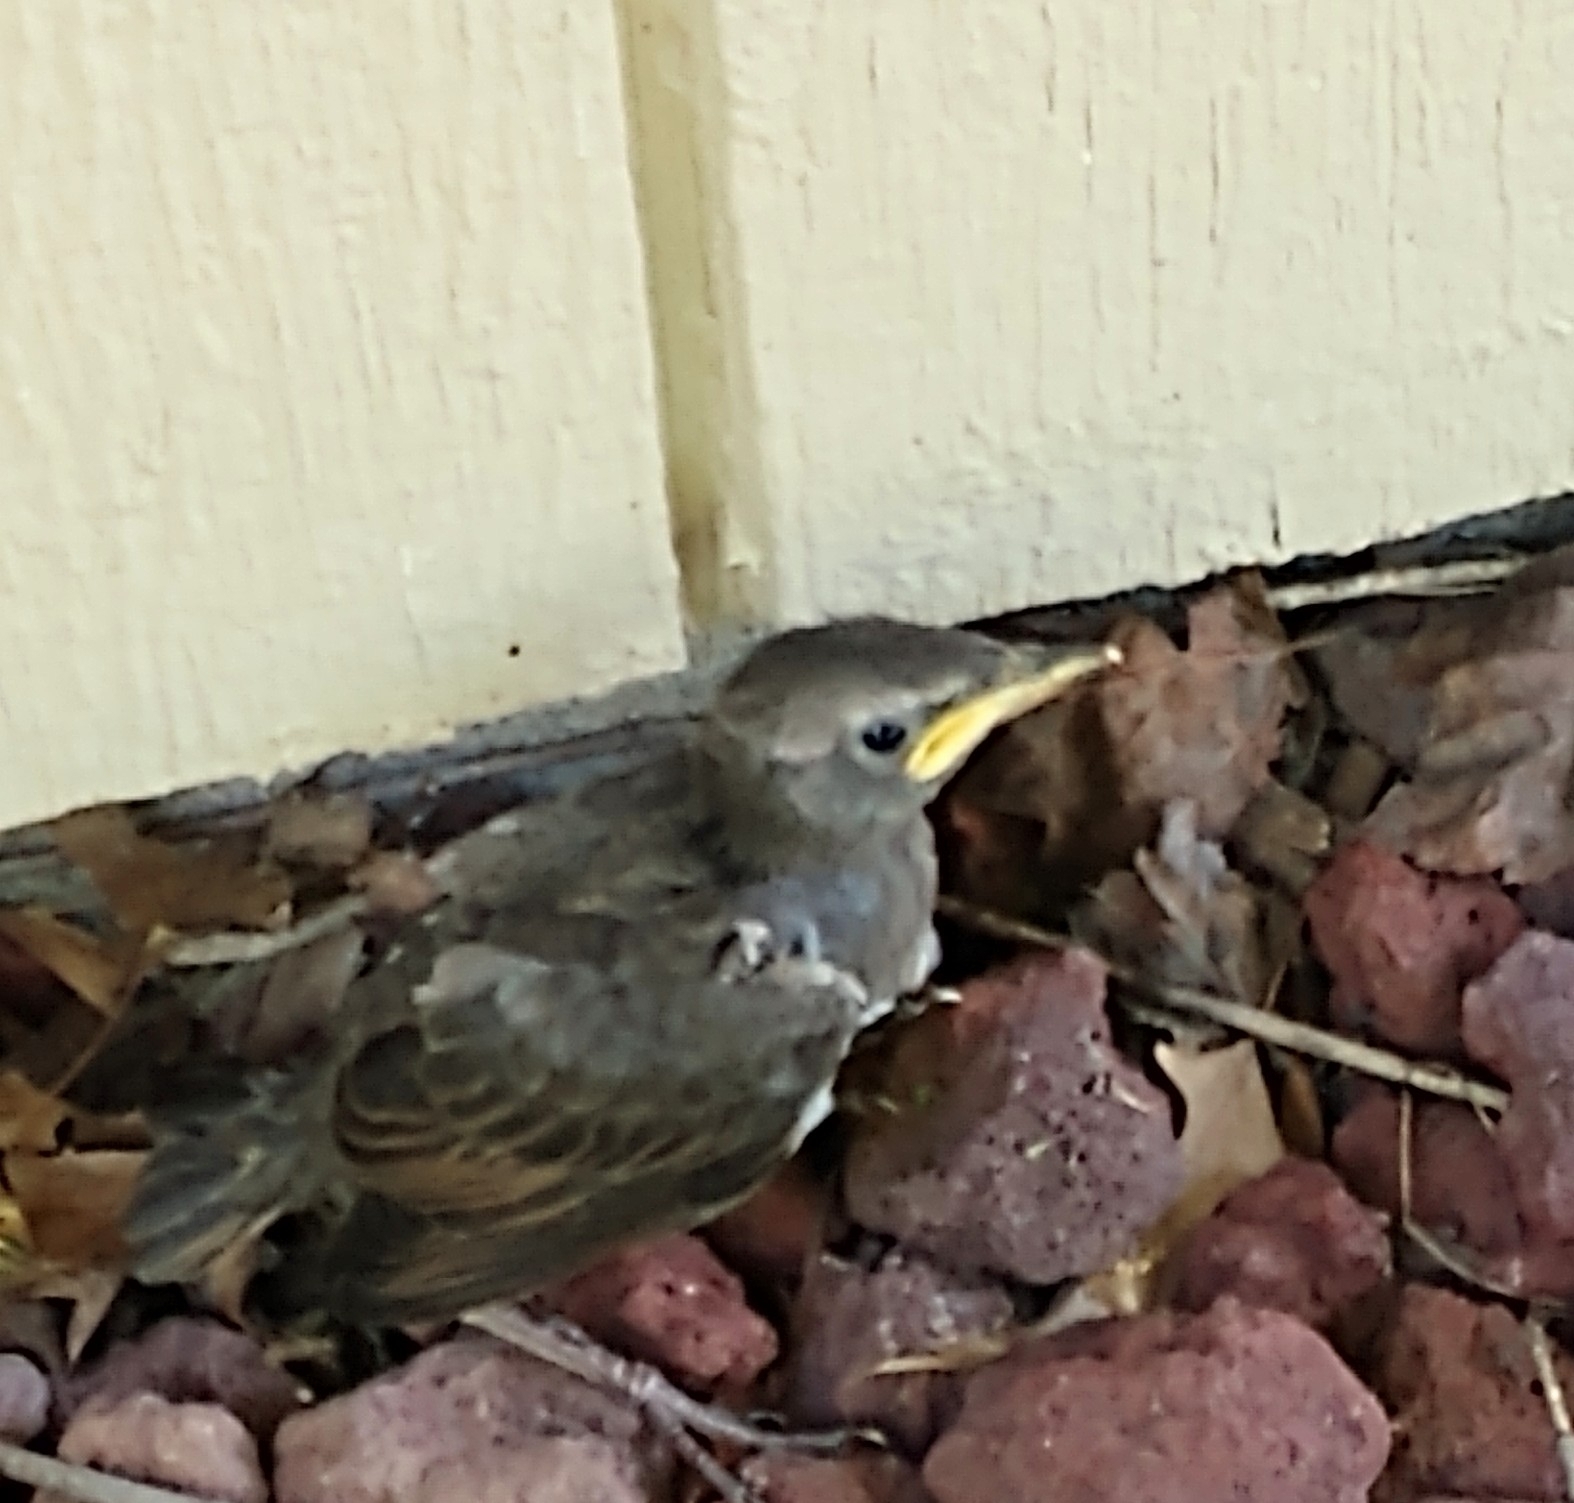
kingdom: Animalia
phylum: Chordata
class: Aves
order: Passeriformes
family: Sturnidae
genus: Sturnus
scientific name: Sturnus vulgaris
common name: Common starling
